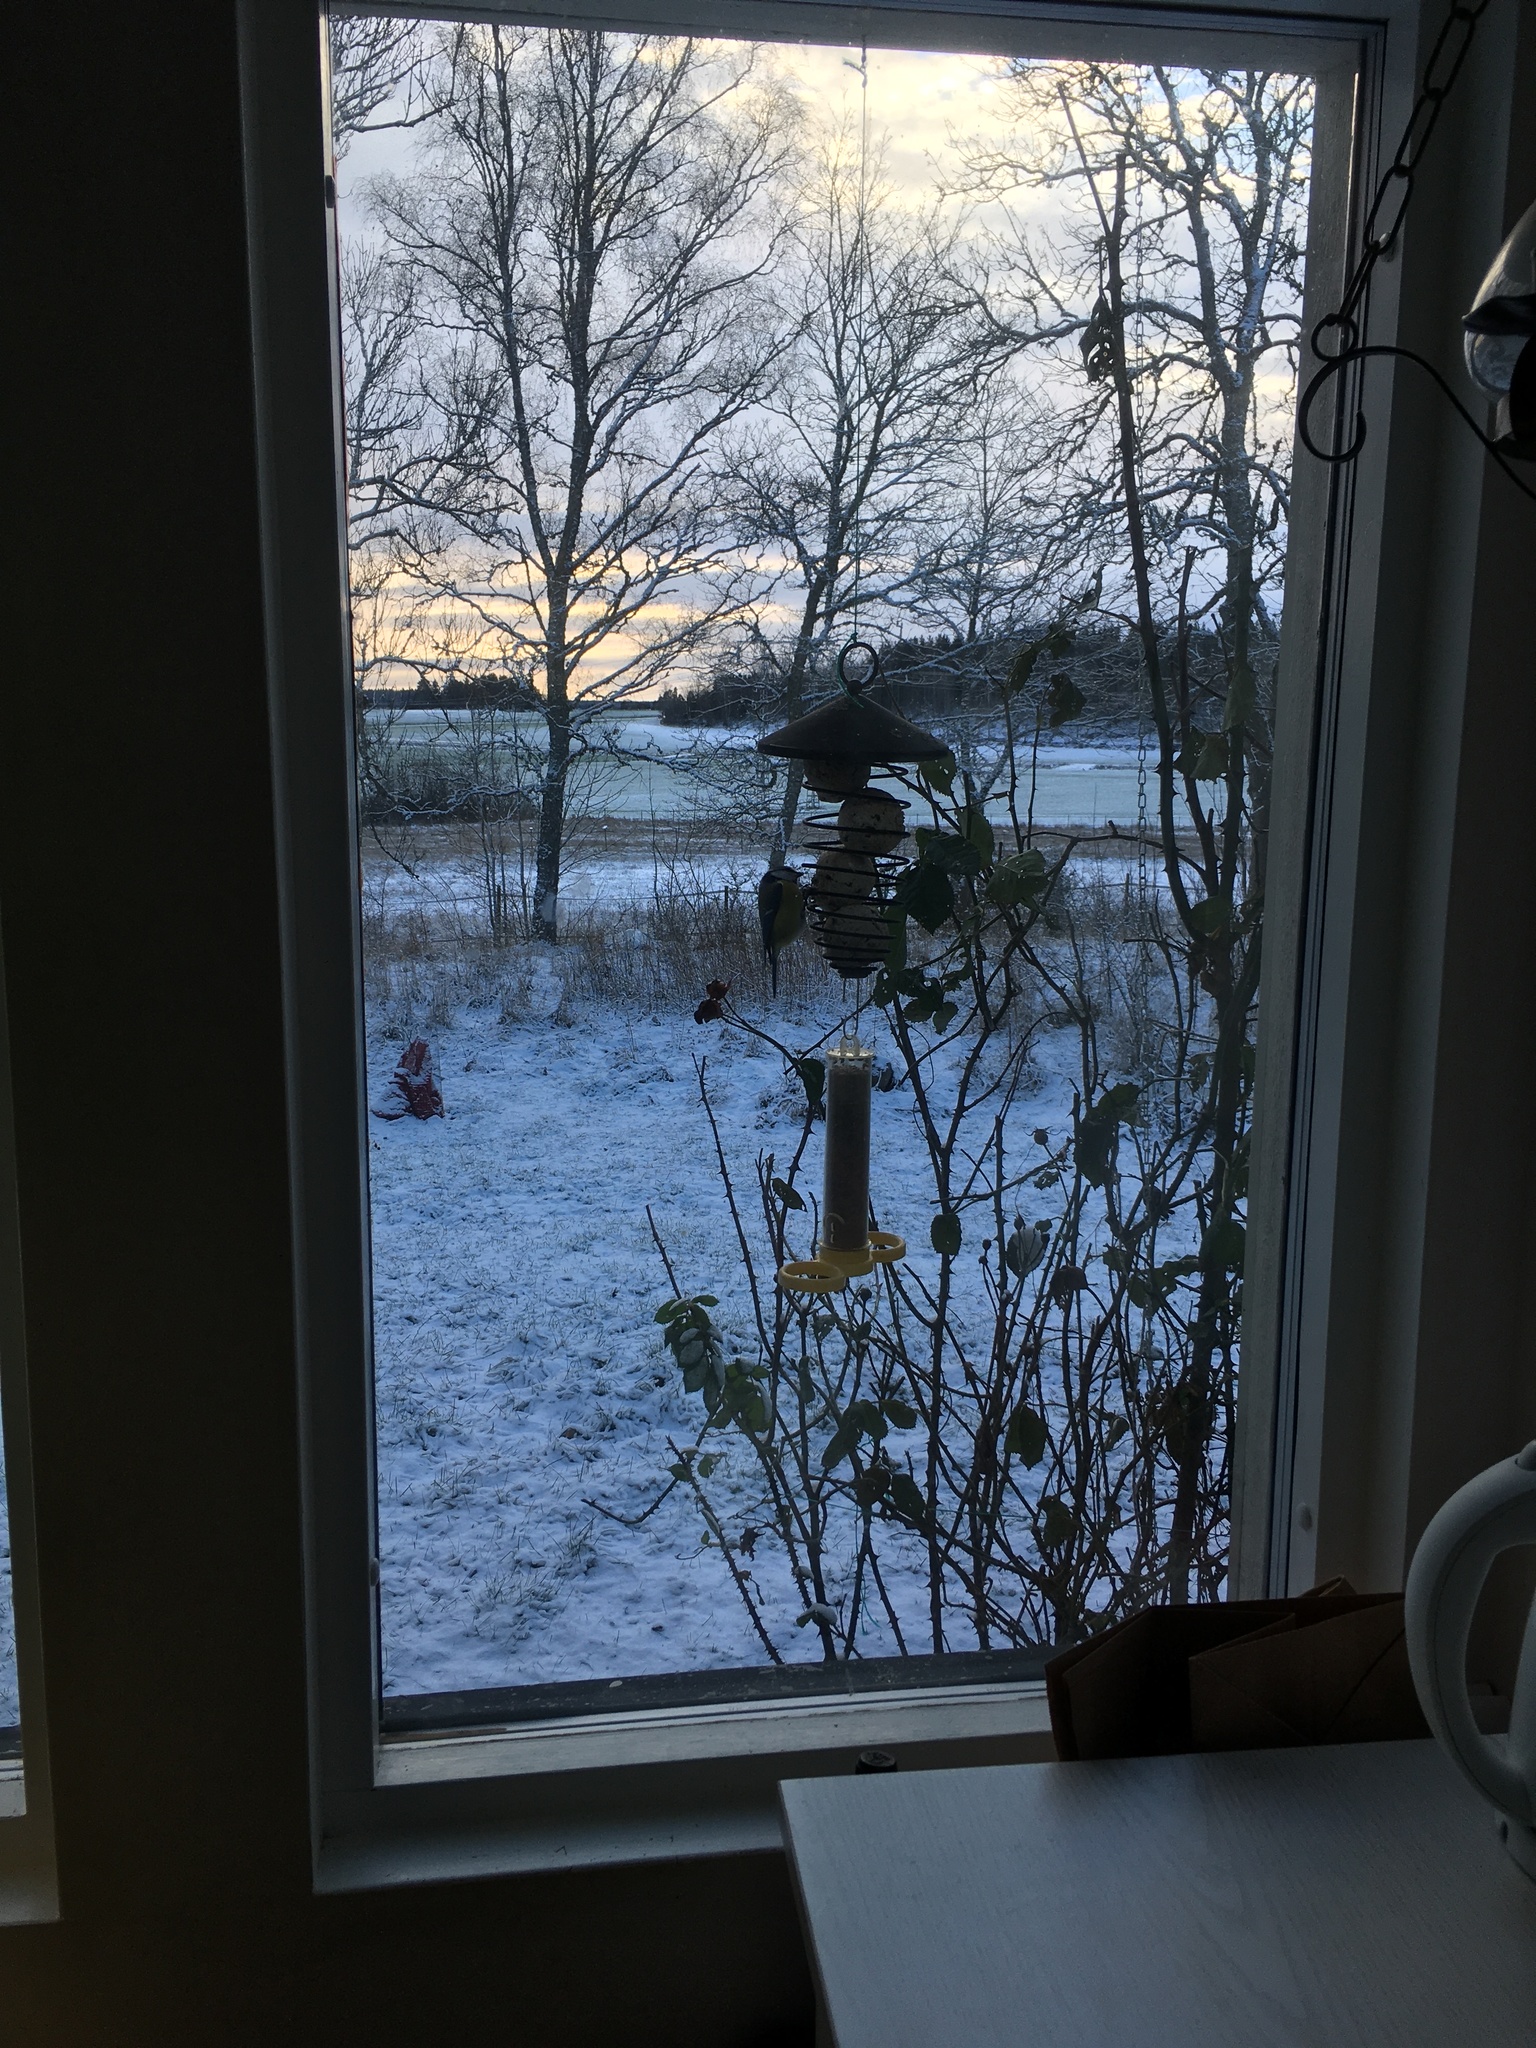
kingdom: Animalia
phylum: Chordata
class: Aves
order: Passeriformes
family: Paridae
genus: Cyanistes
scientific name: Cyanistes caeruleus
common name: Eurasian blue tit
